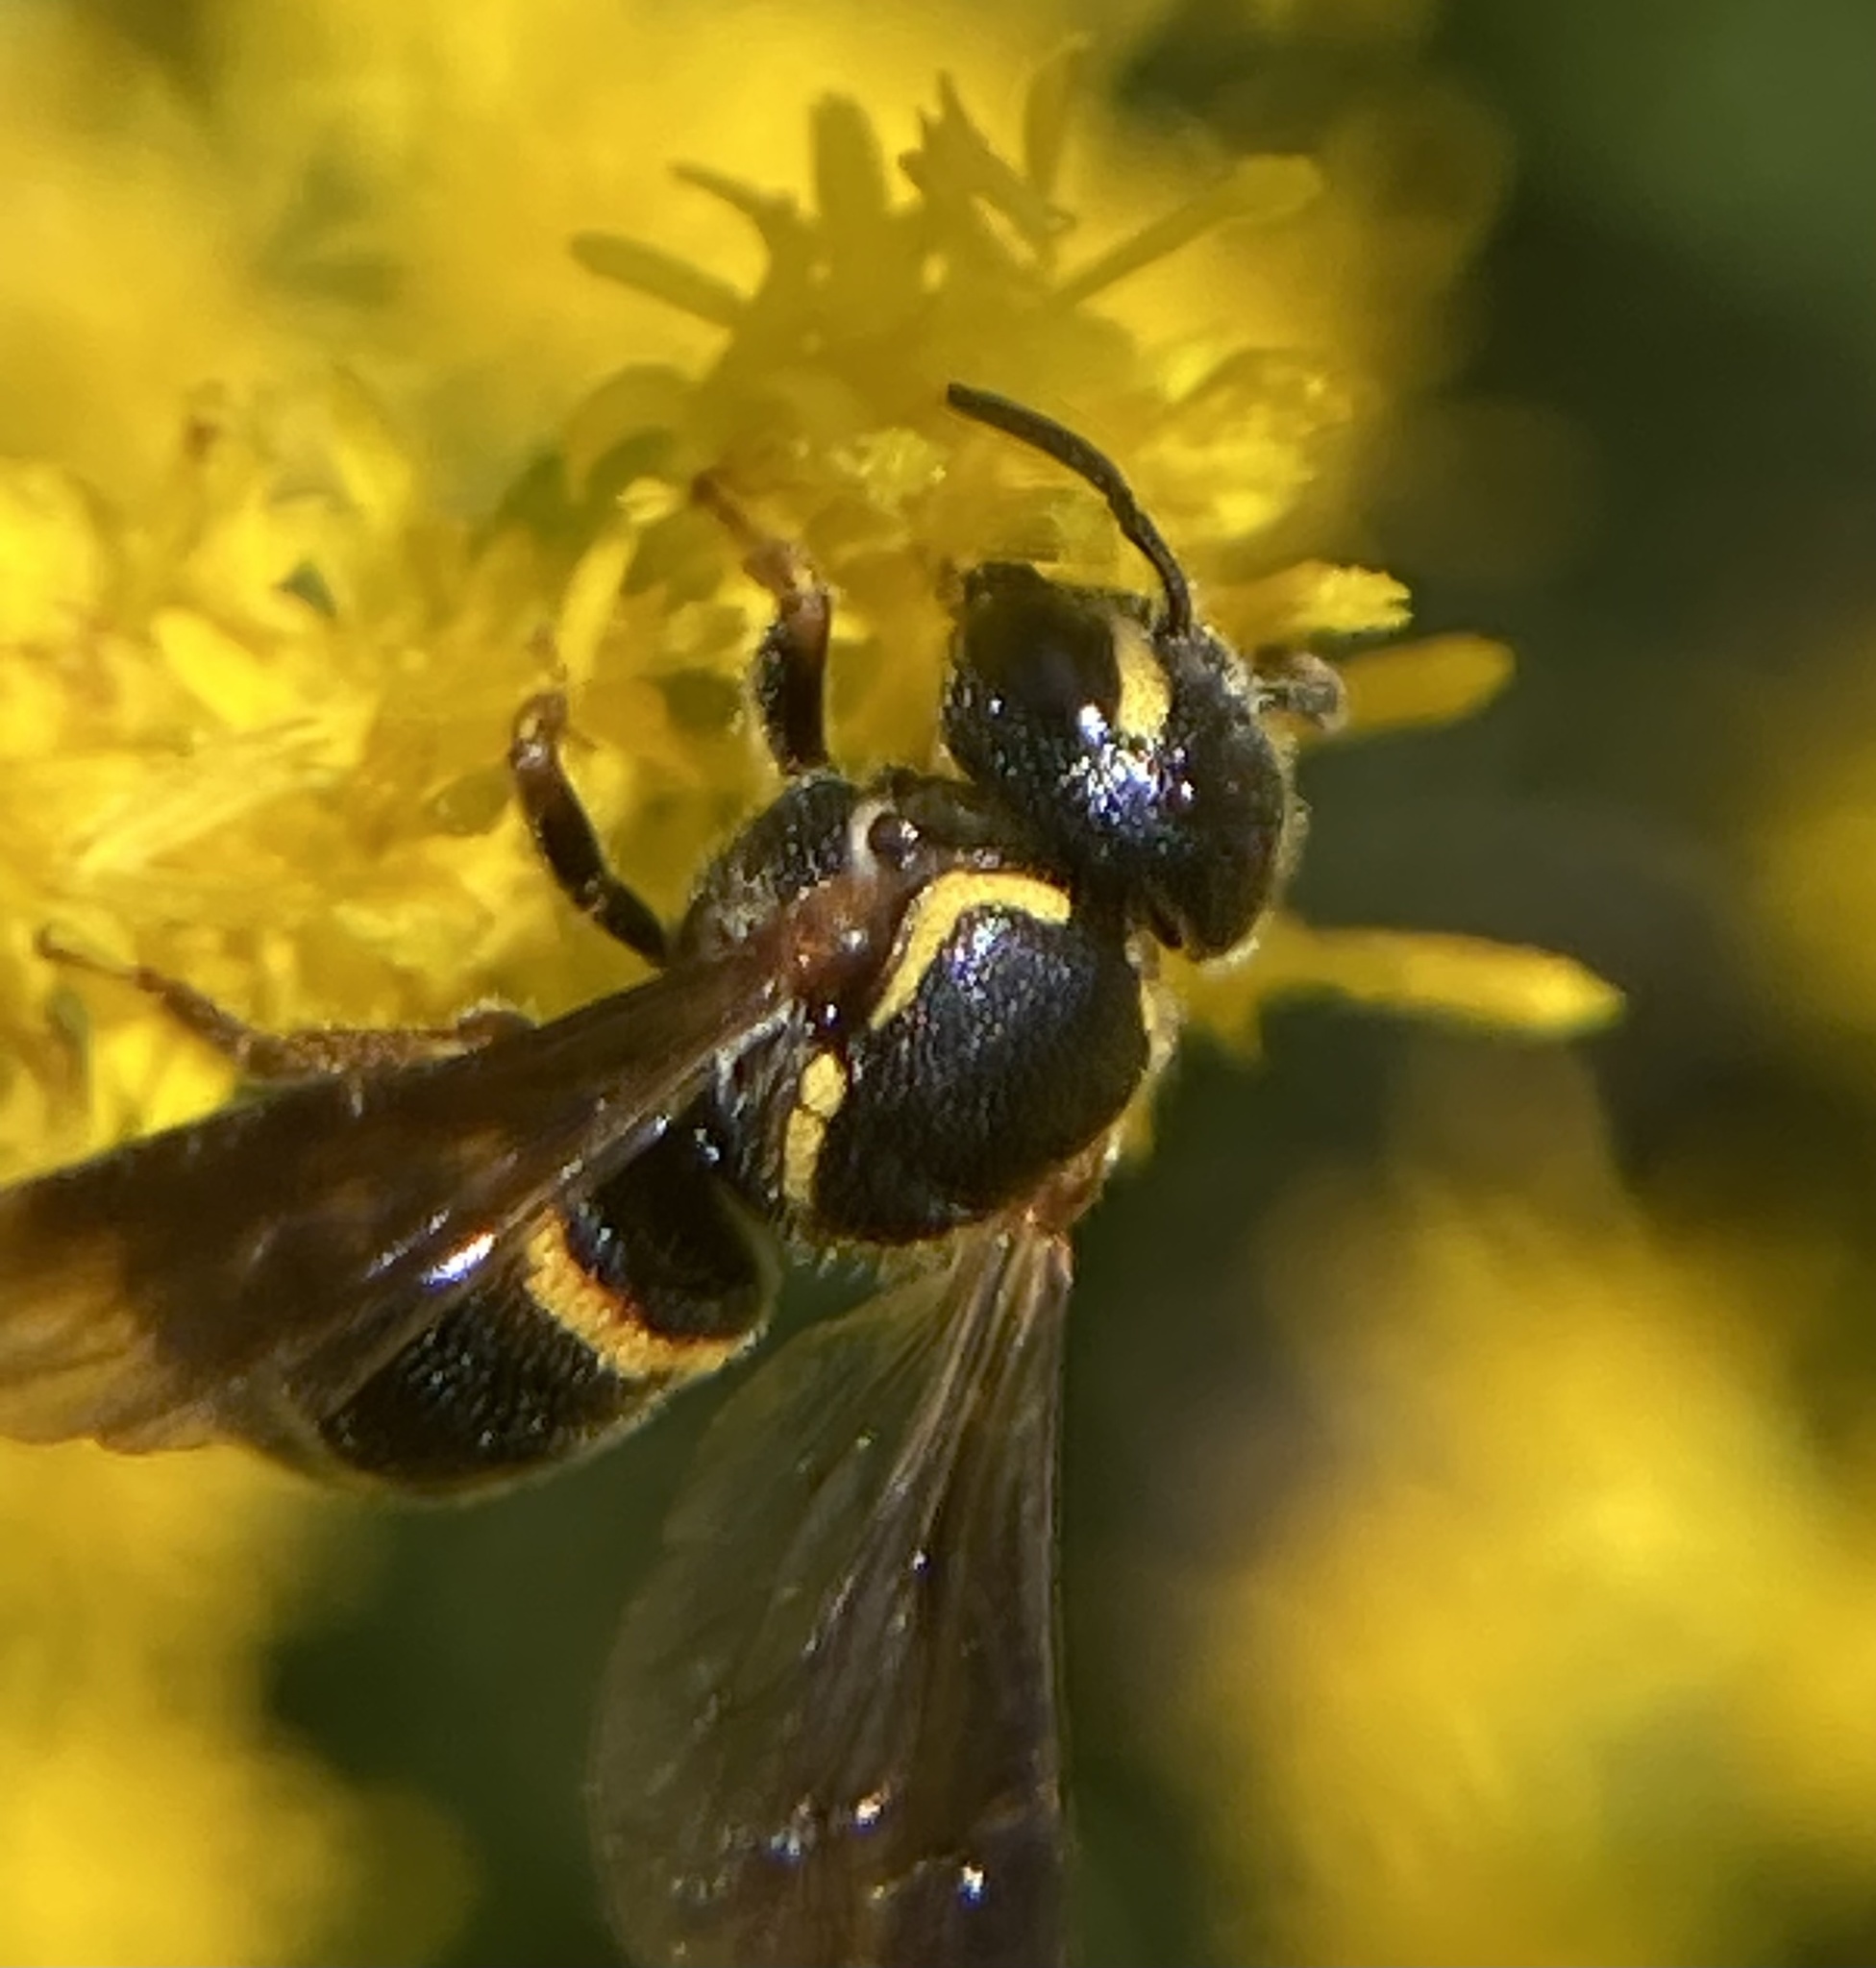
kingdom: Animalia
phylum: Arthropoda
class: Insecta
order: Hymenoptera
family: Megachilidae
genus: Stelis
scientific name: Stelis louisae
